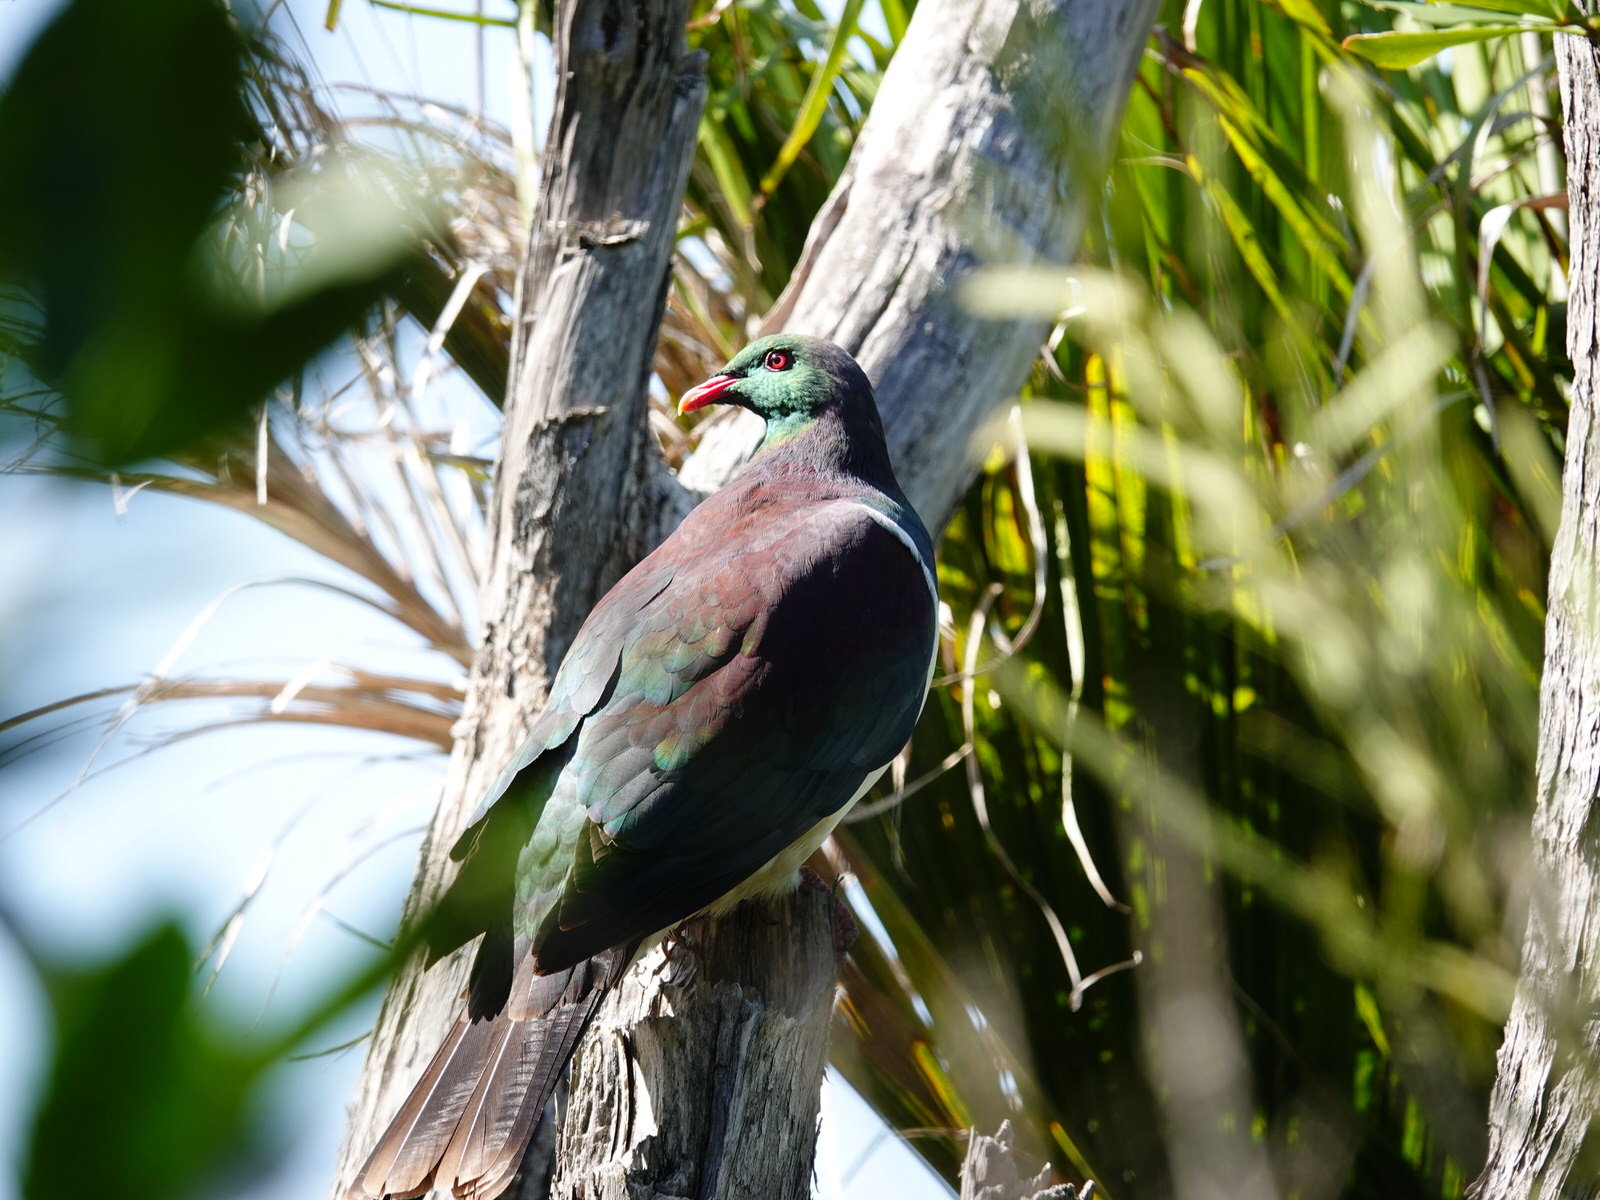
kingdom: Animalia
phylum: Chordata
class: Aves
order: Columbiformes
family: Columbidae
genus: Hemiphaga
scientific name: Hemiphaga novaeseelandiae
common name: New zealand pigeon
